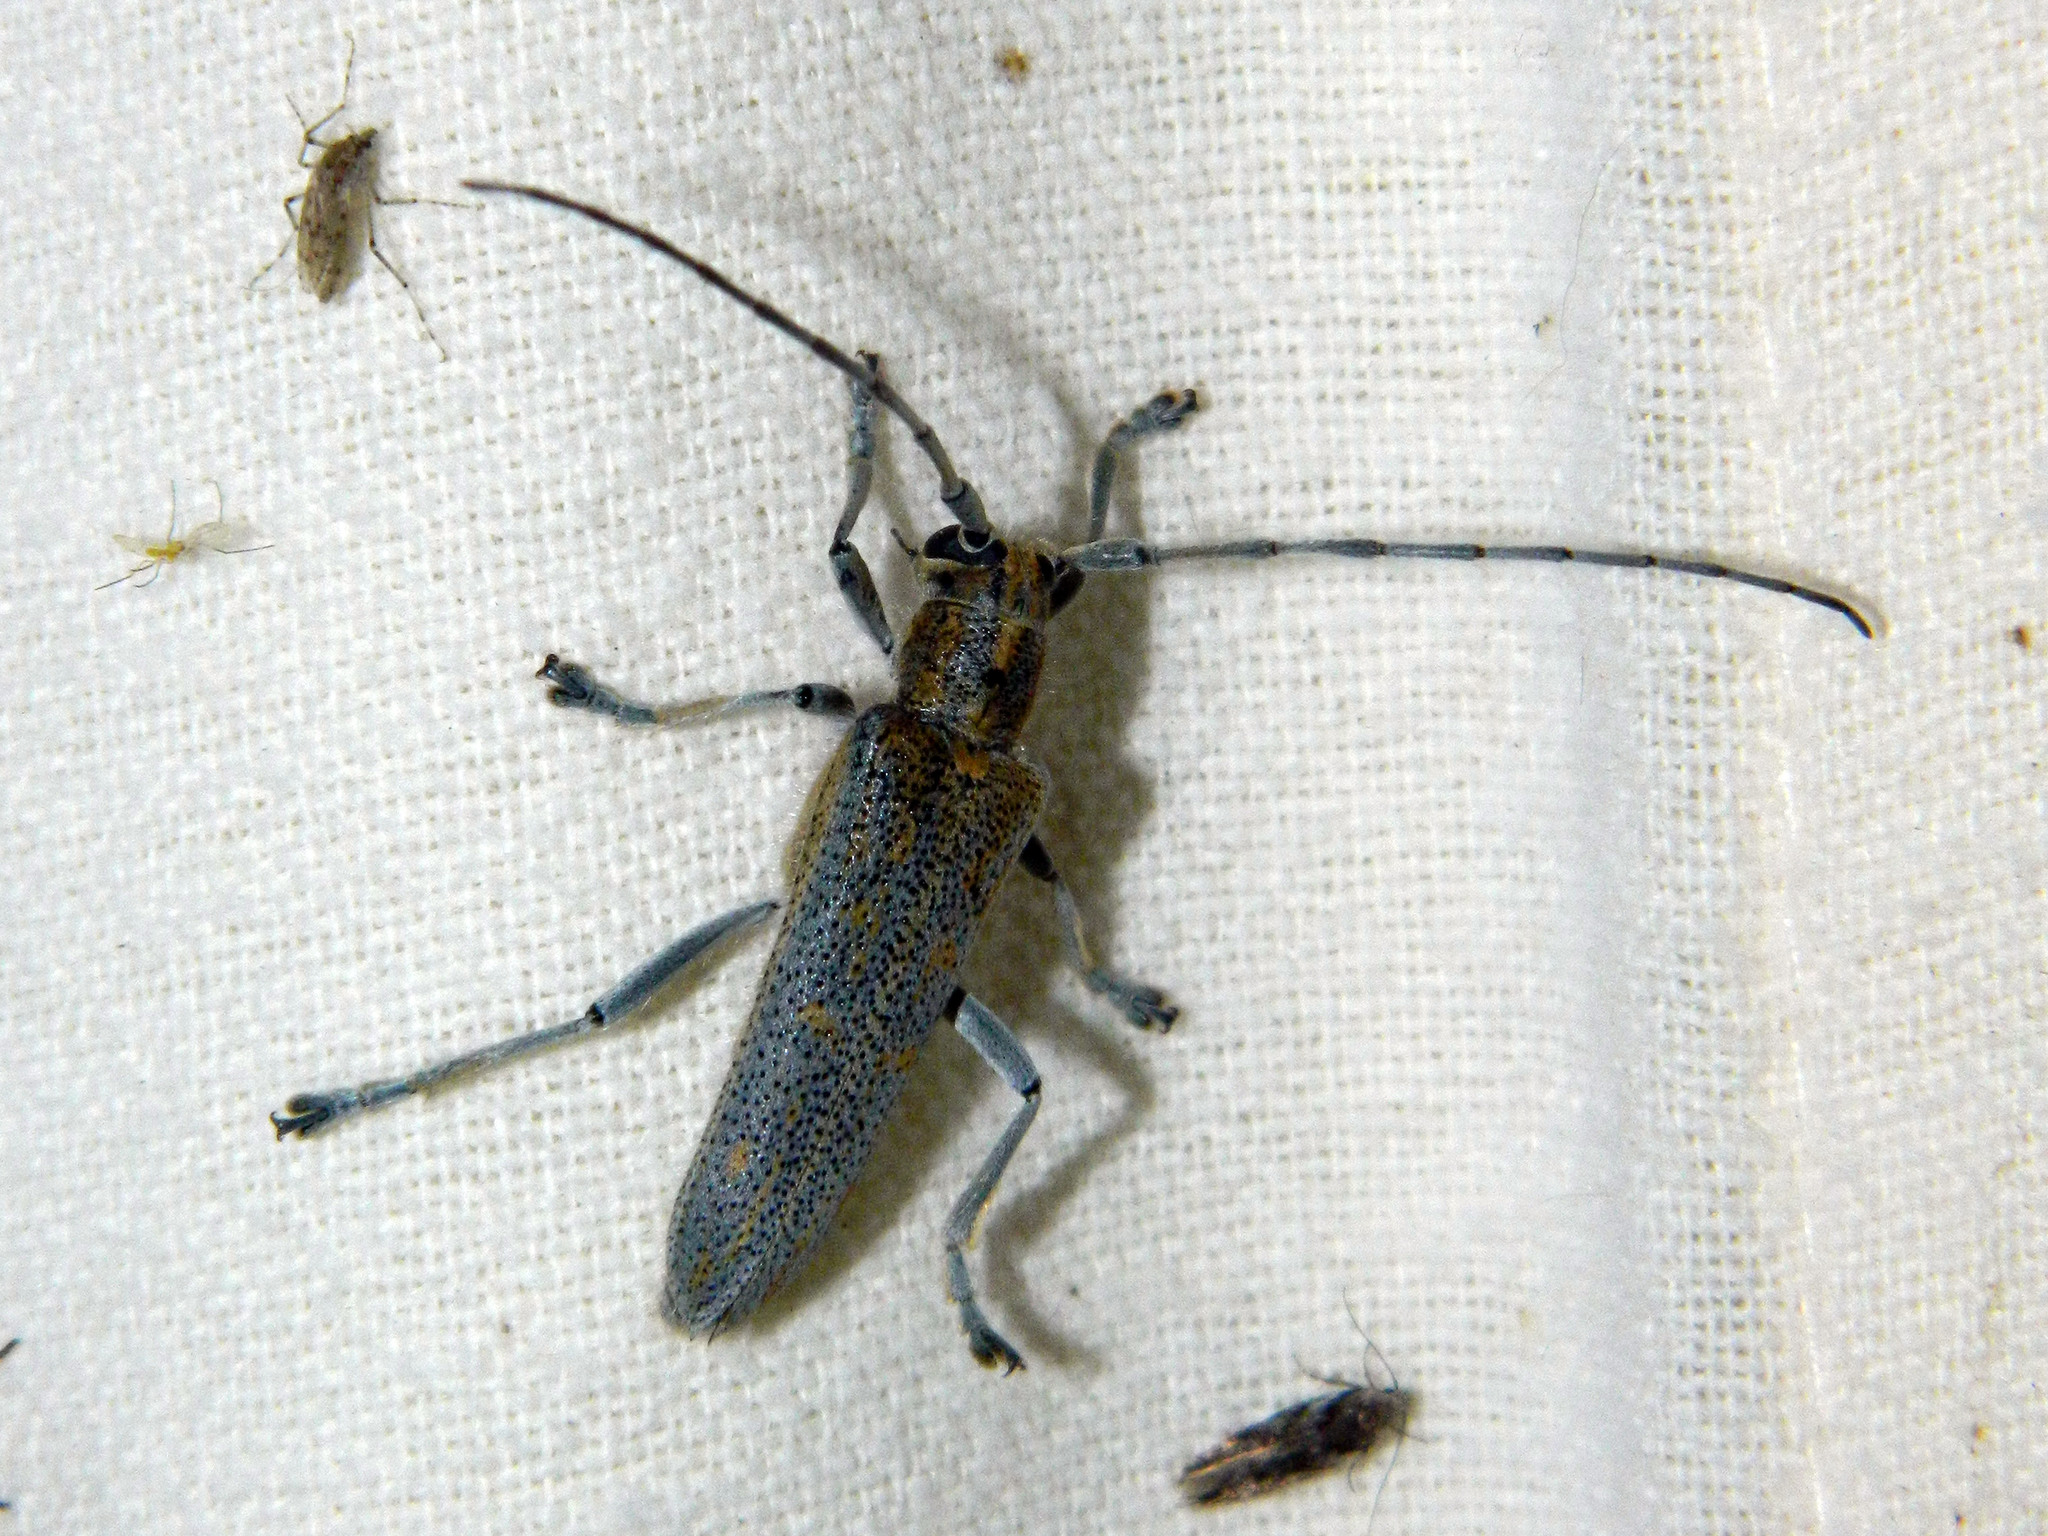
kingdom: Animalia
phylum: Arthropoda
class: Insecta
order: Coleoptera
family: Cerambycidae
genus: Saperda
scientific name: Saperda calcarata
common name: Poplar borer
